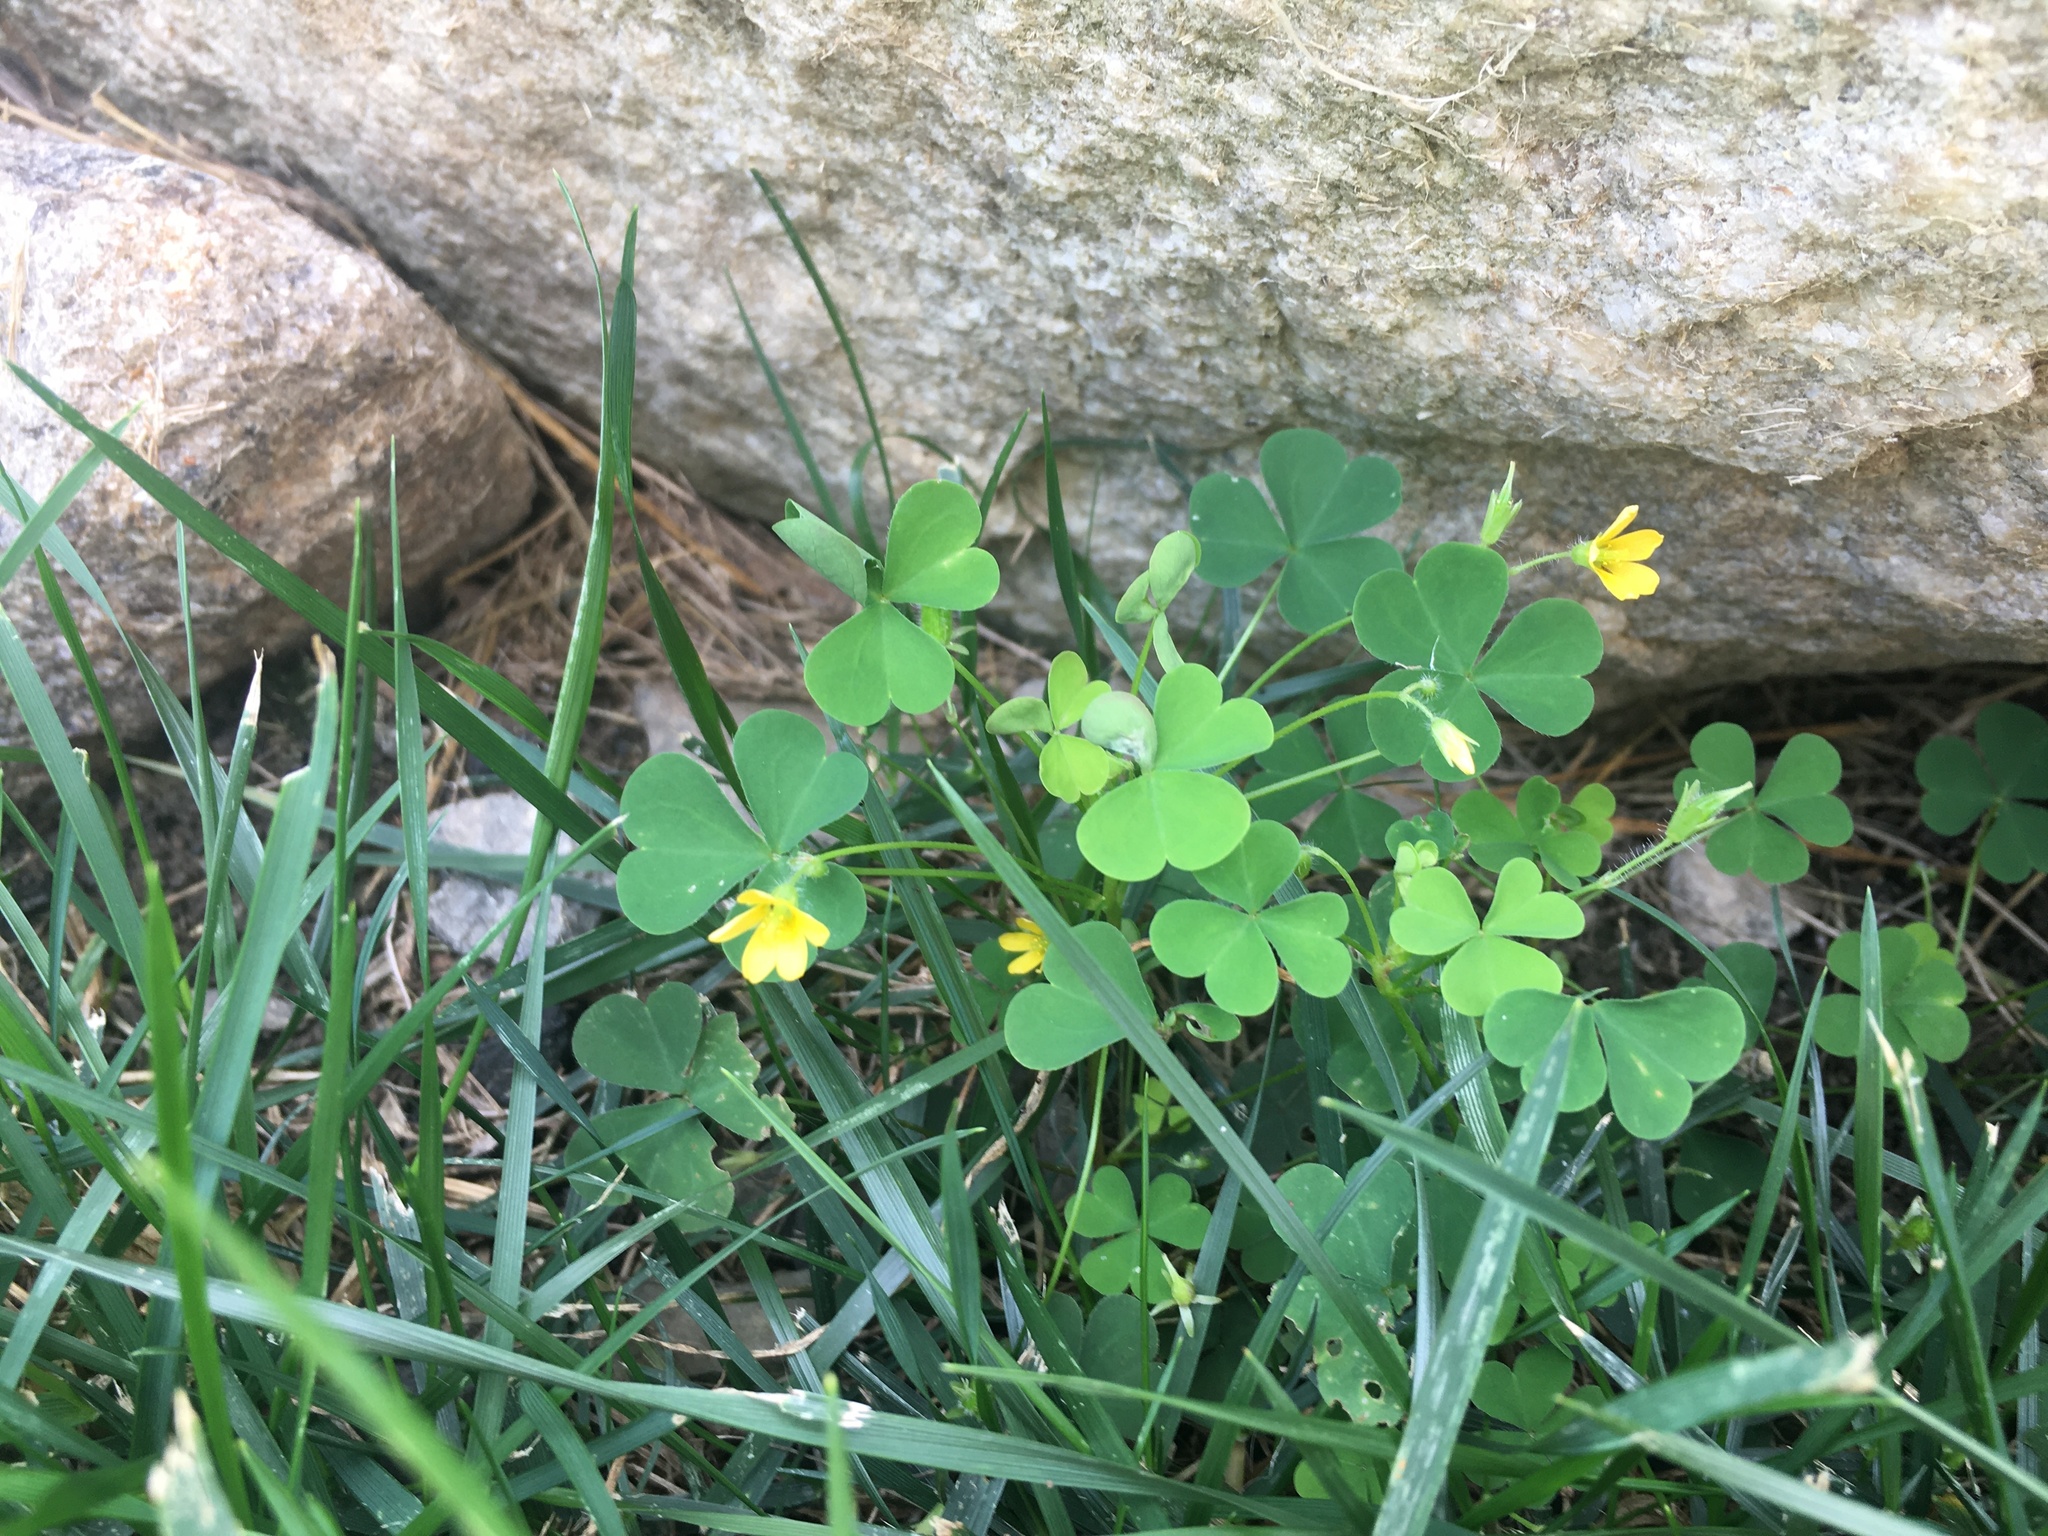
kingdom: Plantae
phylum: Tracheophyta
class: Magnoliopsida
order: Oxalidales
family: Oxalidaceae
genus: Oxalis
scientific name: Oxalis stricta
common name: Upright yellow-sorrel
